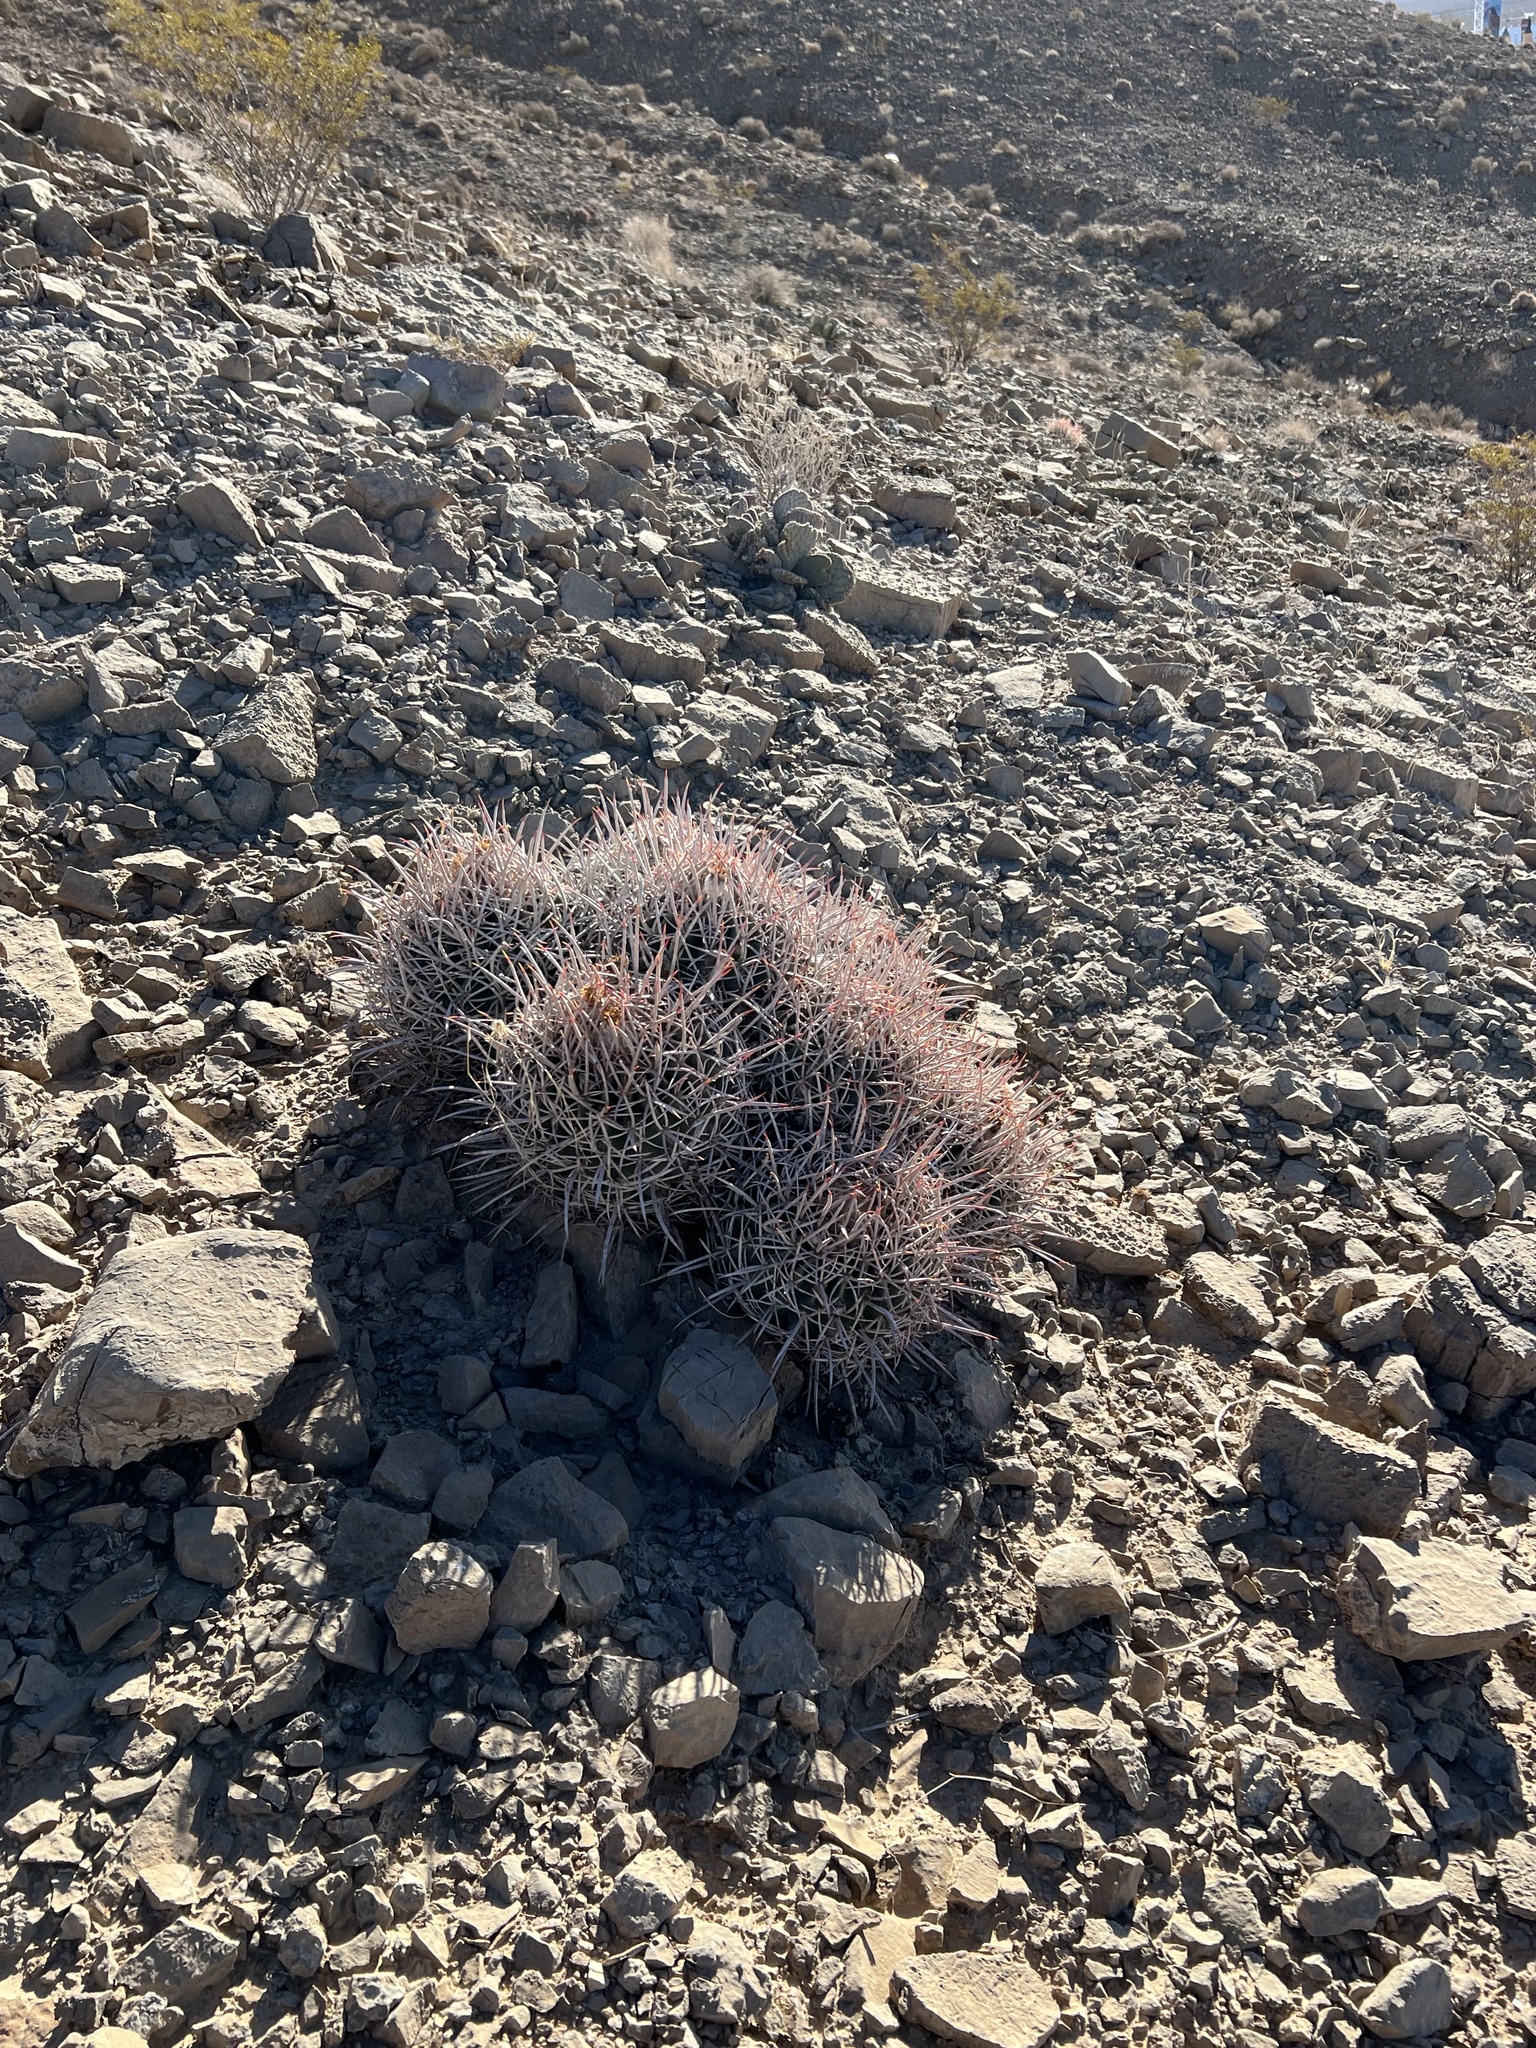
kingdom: Plantae
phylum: Tracheophyta
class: Magnoliopsida
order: Caryophyllales
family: Cactaceae
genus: Echinocactus
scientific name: Echinocactus polycephalus
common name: Cottontop cactus
